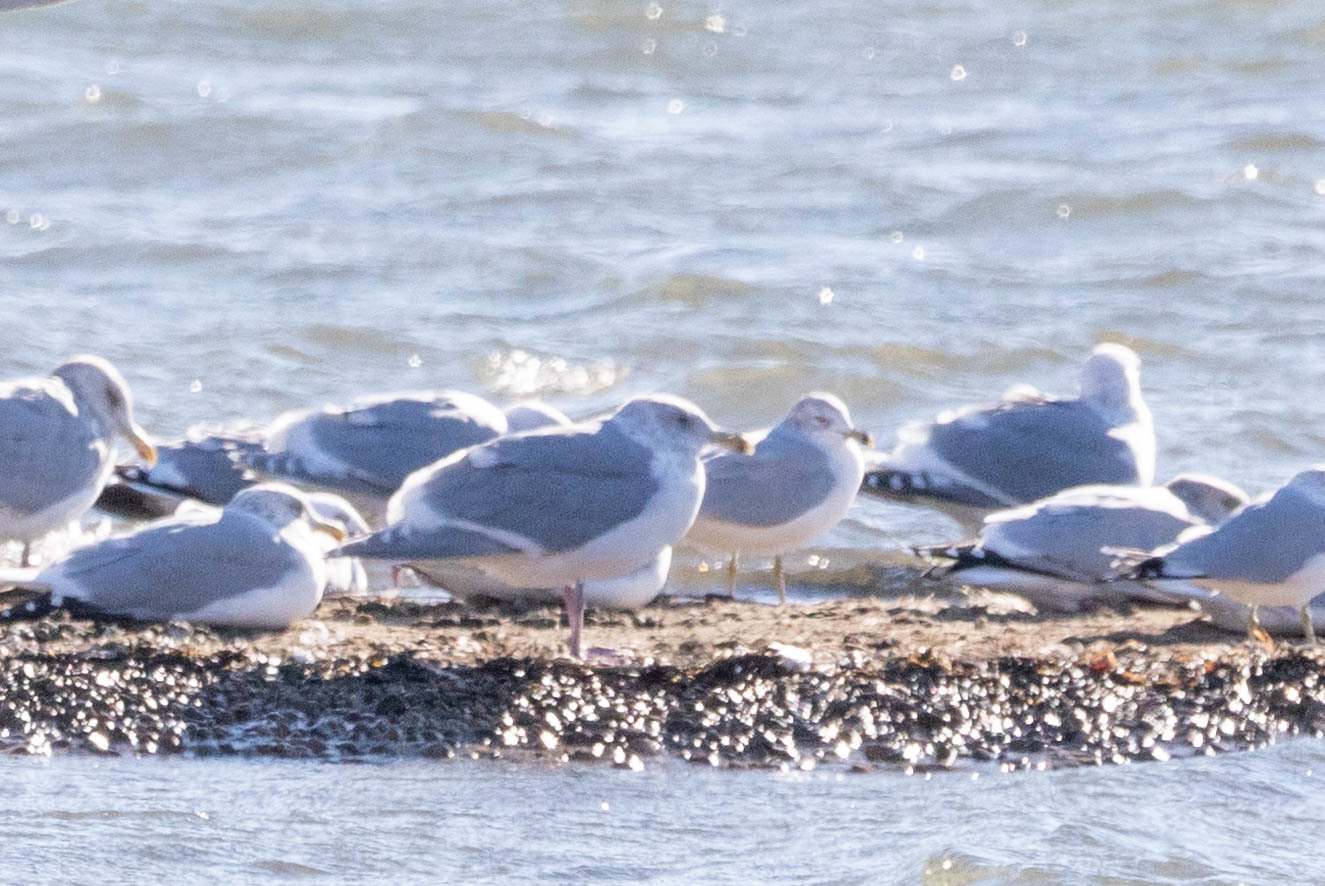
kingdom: Animalia
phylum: Chordata
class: Aves
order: Charadriiformes
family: Laridae
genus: Larus
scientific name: Larus glaucescens
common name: Glaucous-winged gull
